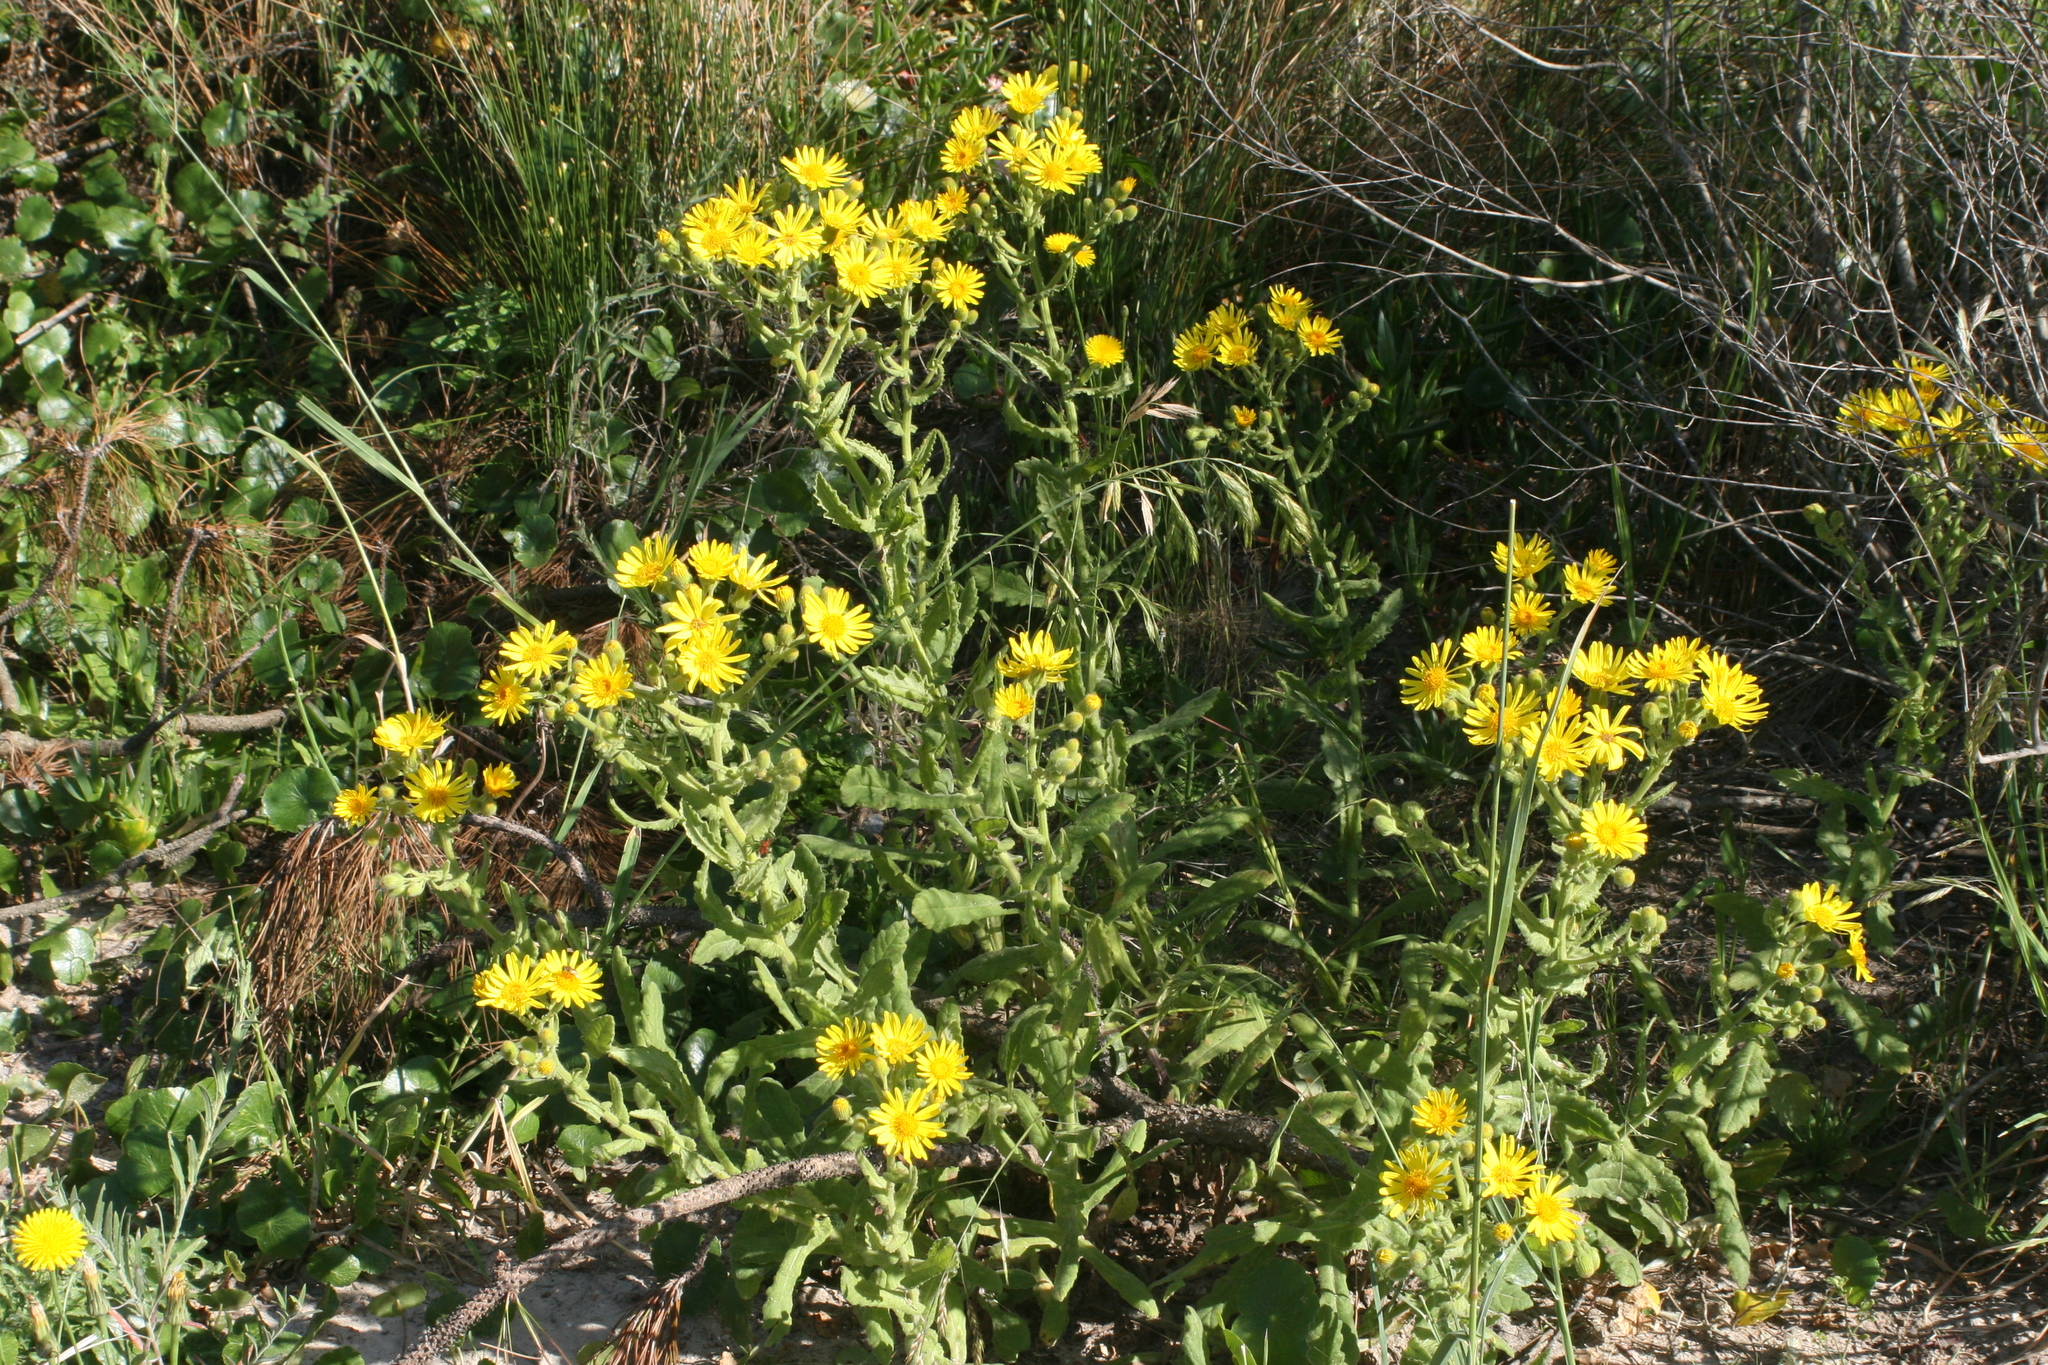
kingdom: Plantae
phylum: Tracheophyta
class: Magnoliopsida
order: Asterales
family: Asteraceae
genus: Senecio
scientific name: Senecio selloi
